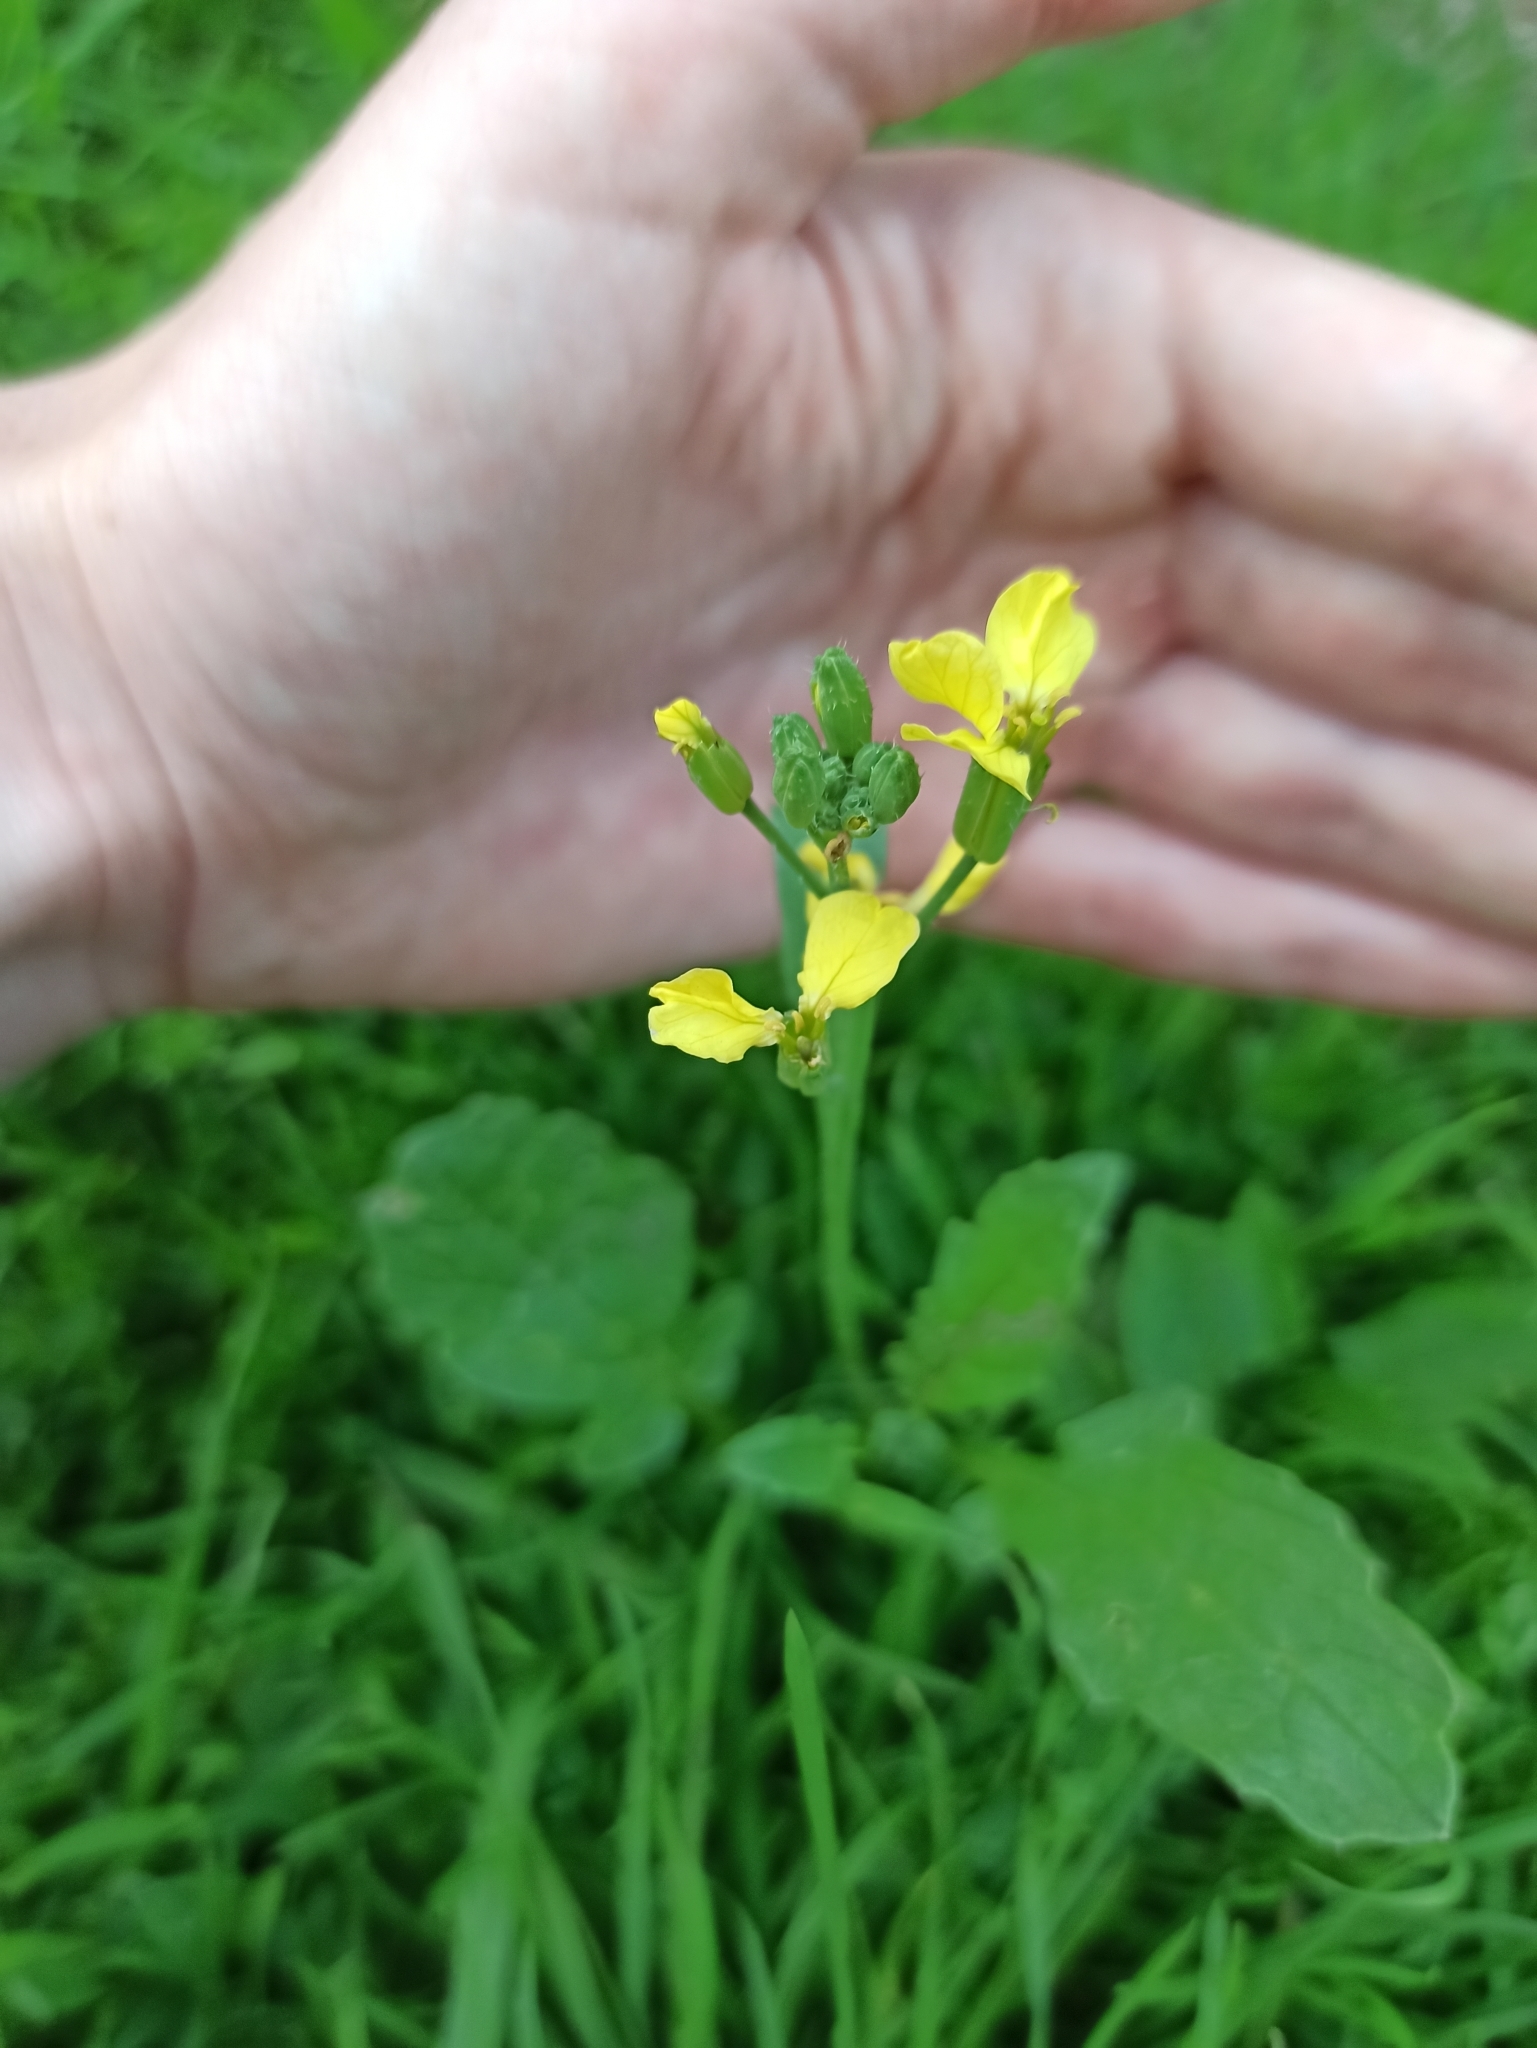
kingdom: Plantae
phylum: Tracheophyta
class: Magnoliopsida
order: Brassicales
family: Brassicaceae
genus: Raphanus
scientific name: Raphanus raphanistrum
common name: Wild radish
